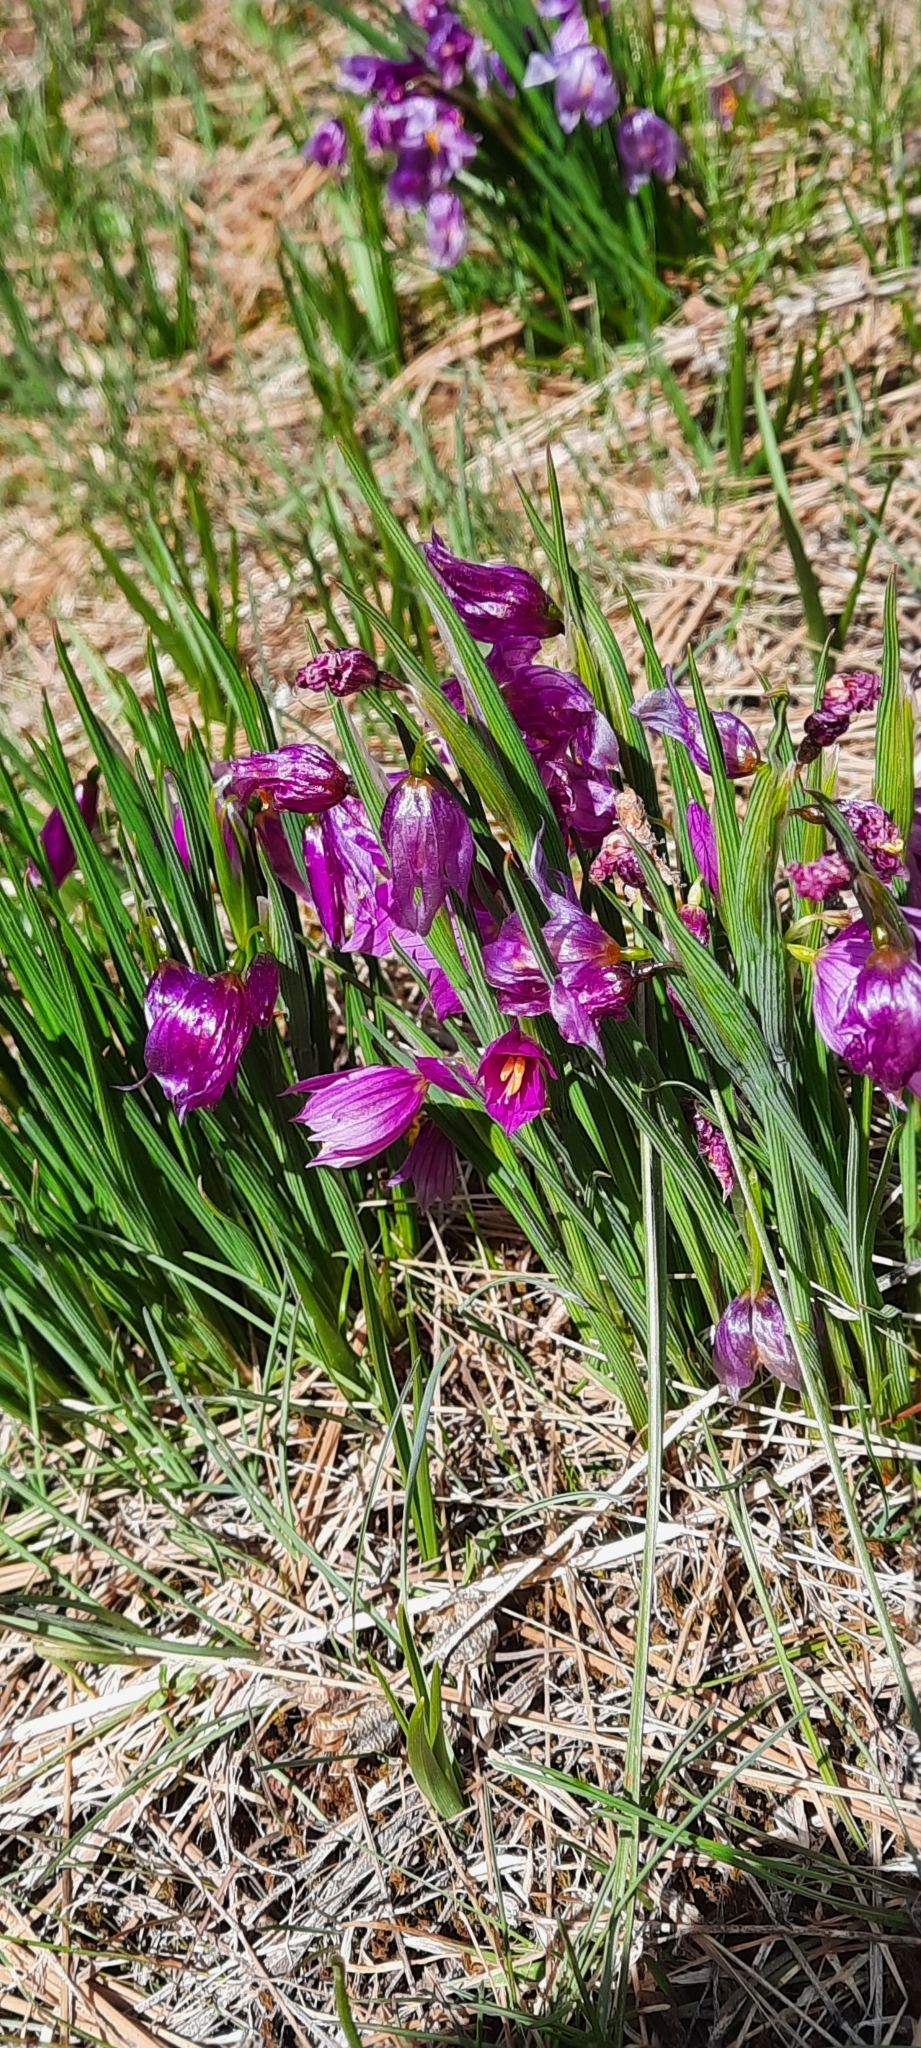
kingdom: Plantae
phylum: Tracheophyta
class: Liliopsida
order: Asparagales
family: Iridaceae
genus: Olsynium
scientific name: Olsynium douglasii
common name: Douglas' grasswidow
